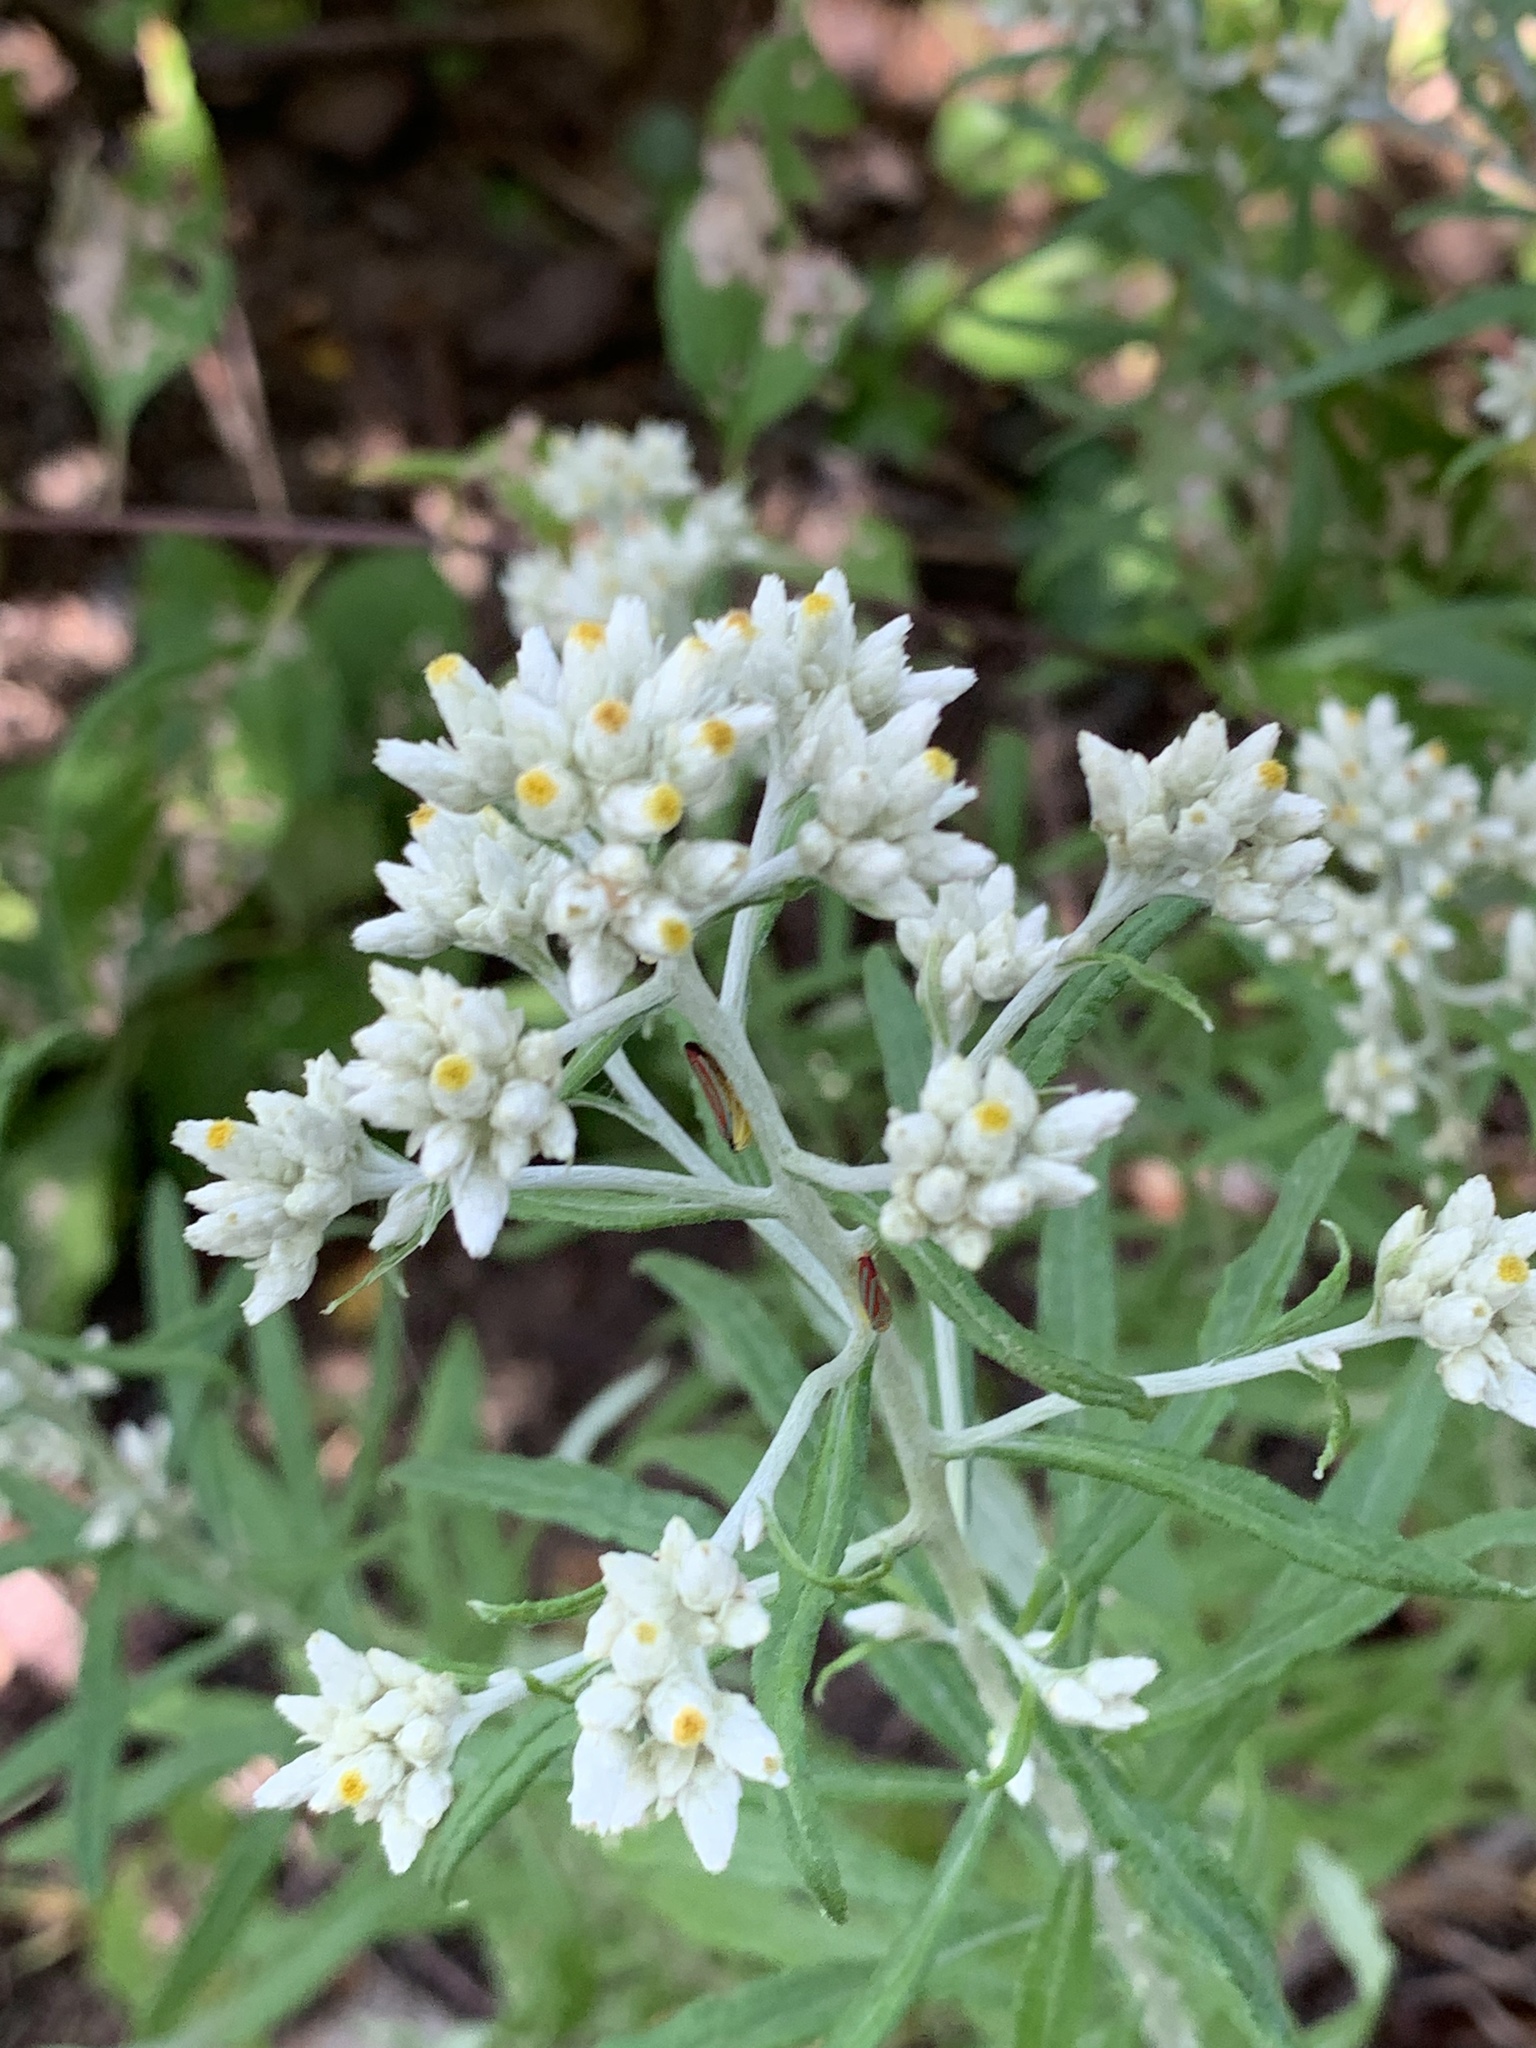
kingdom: Plantae
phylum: Tracheophyta
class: Magnoliopsida
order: Asterales
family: Asteraceae
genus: Pseudognaphalium
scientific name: Pseudognaphalium obtusifolium
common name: Eastern rabbit-tobacco
